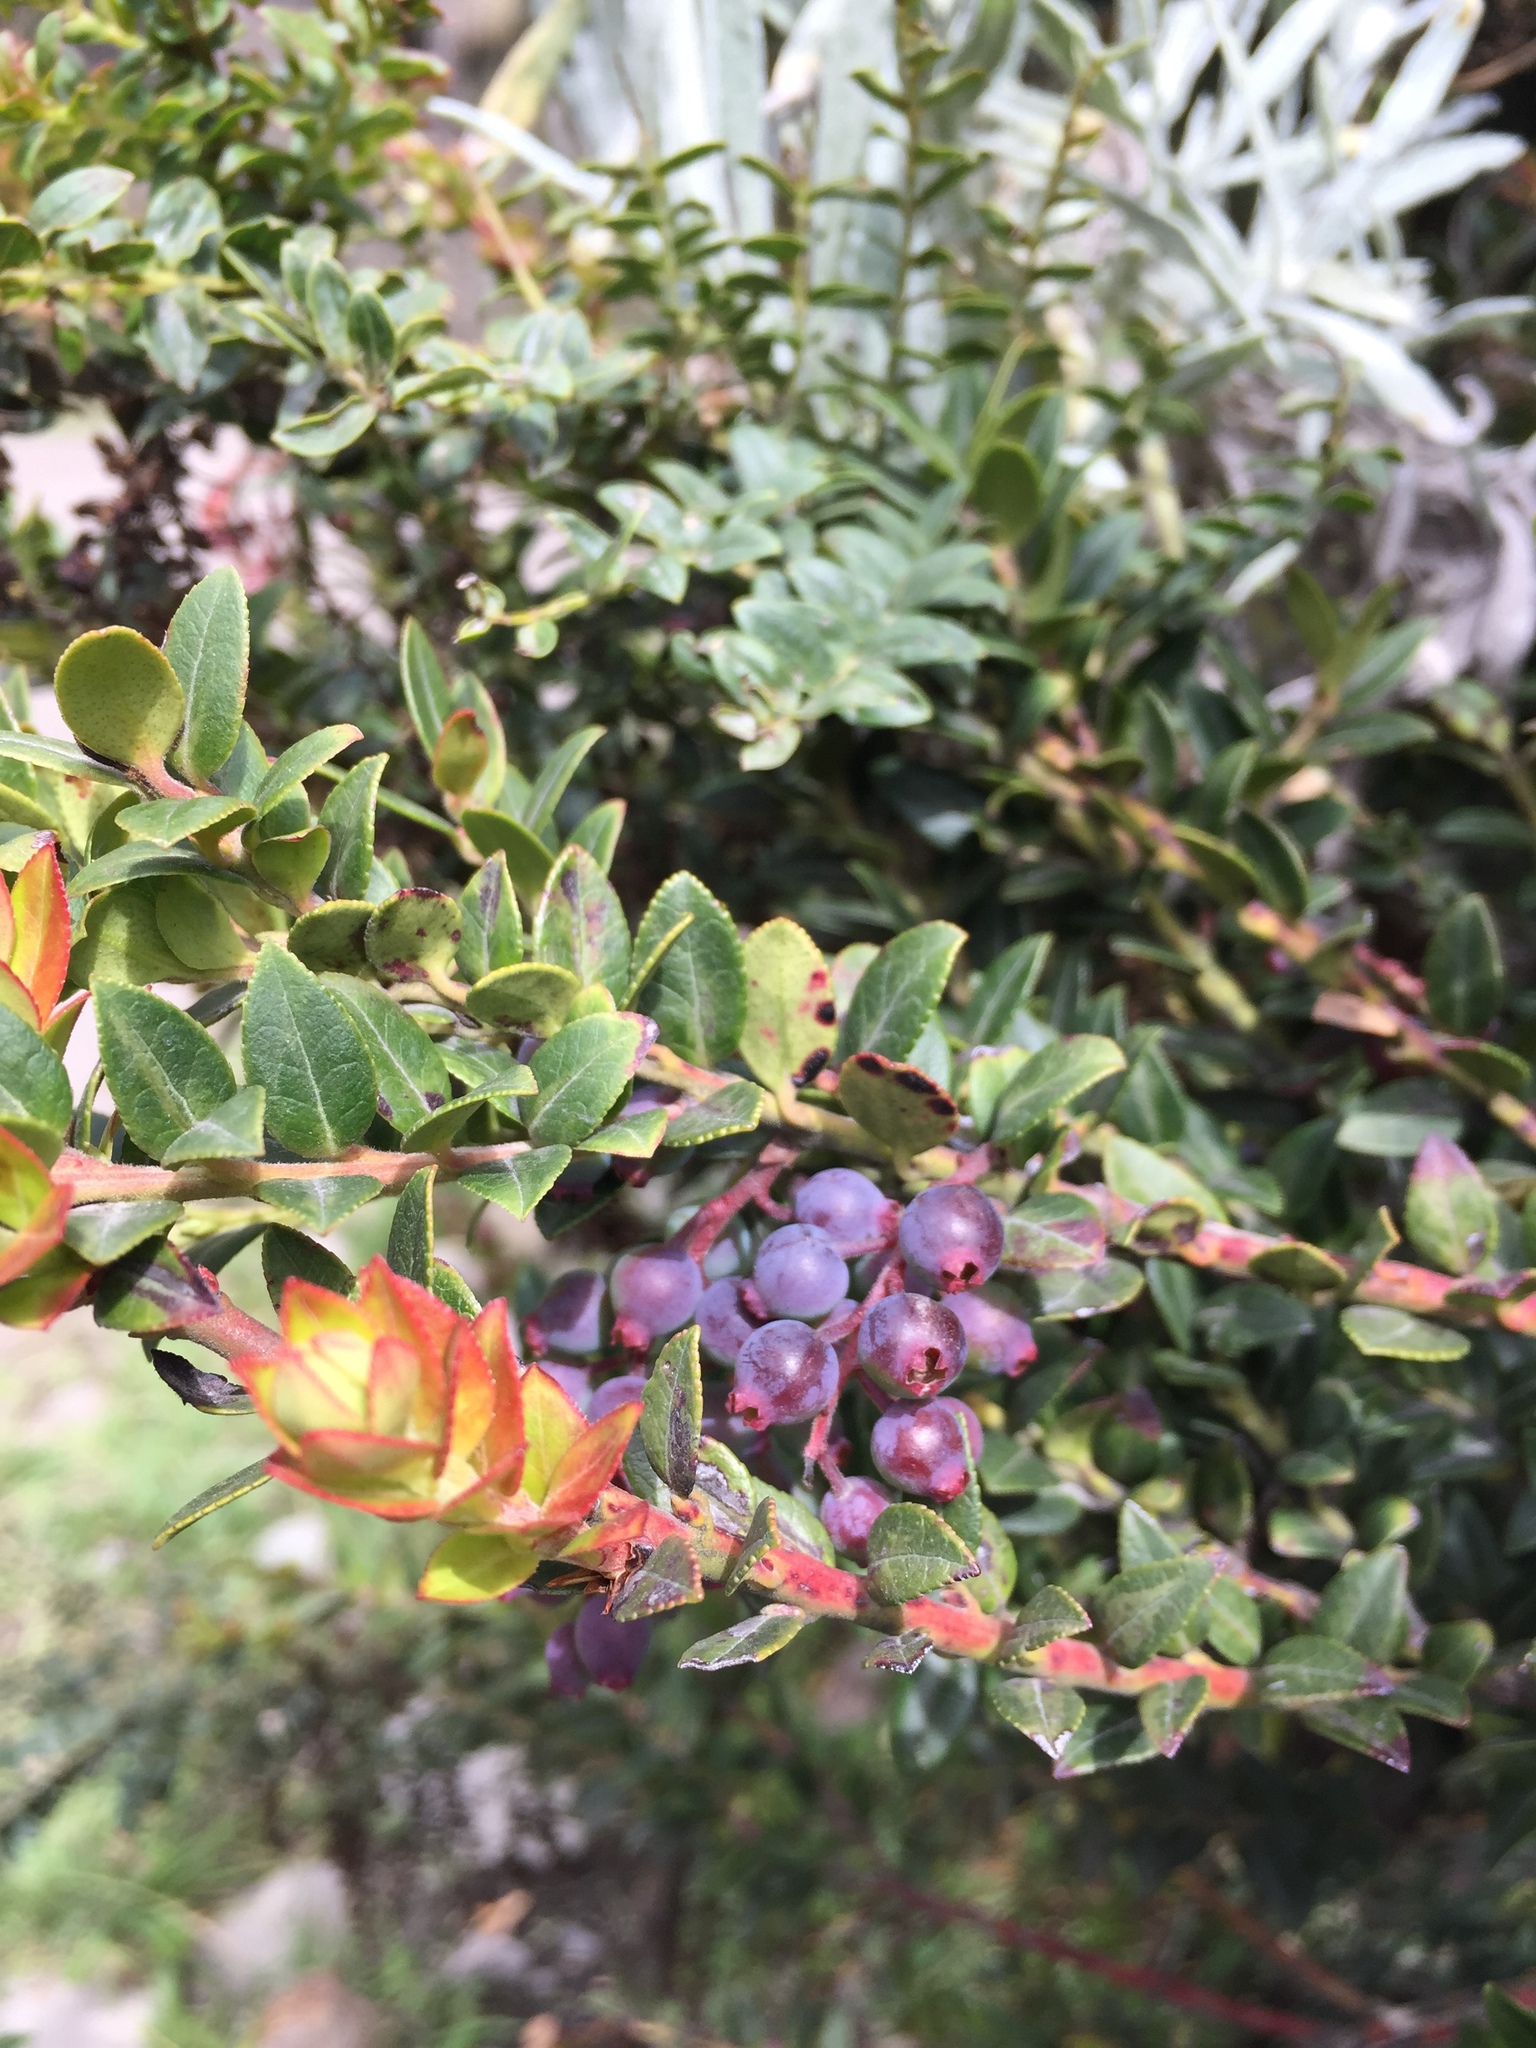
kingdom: Plantae
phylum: Tracheophyta
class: Magnoliopsida
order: Ericales
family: Ericaceae
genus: Vaccinium
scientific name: Vaccinium floribundum
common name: Colombian blueberry
